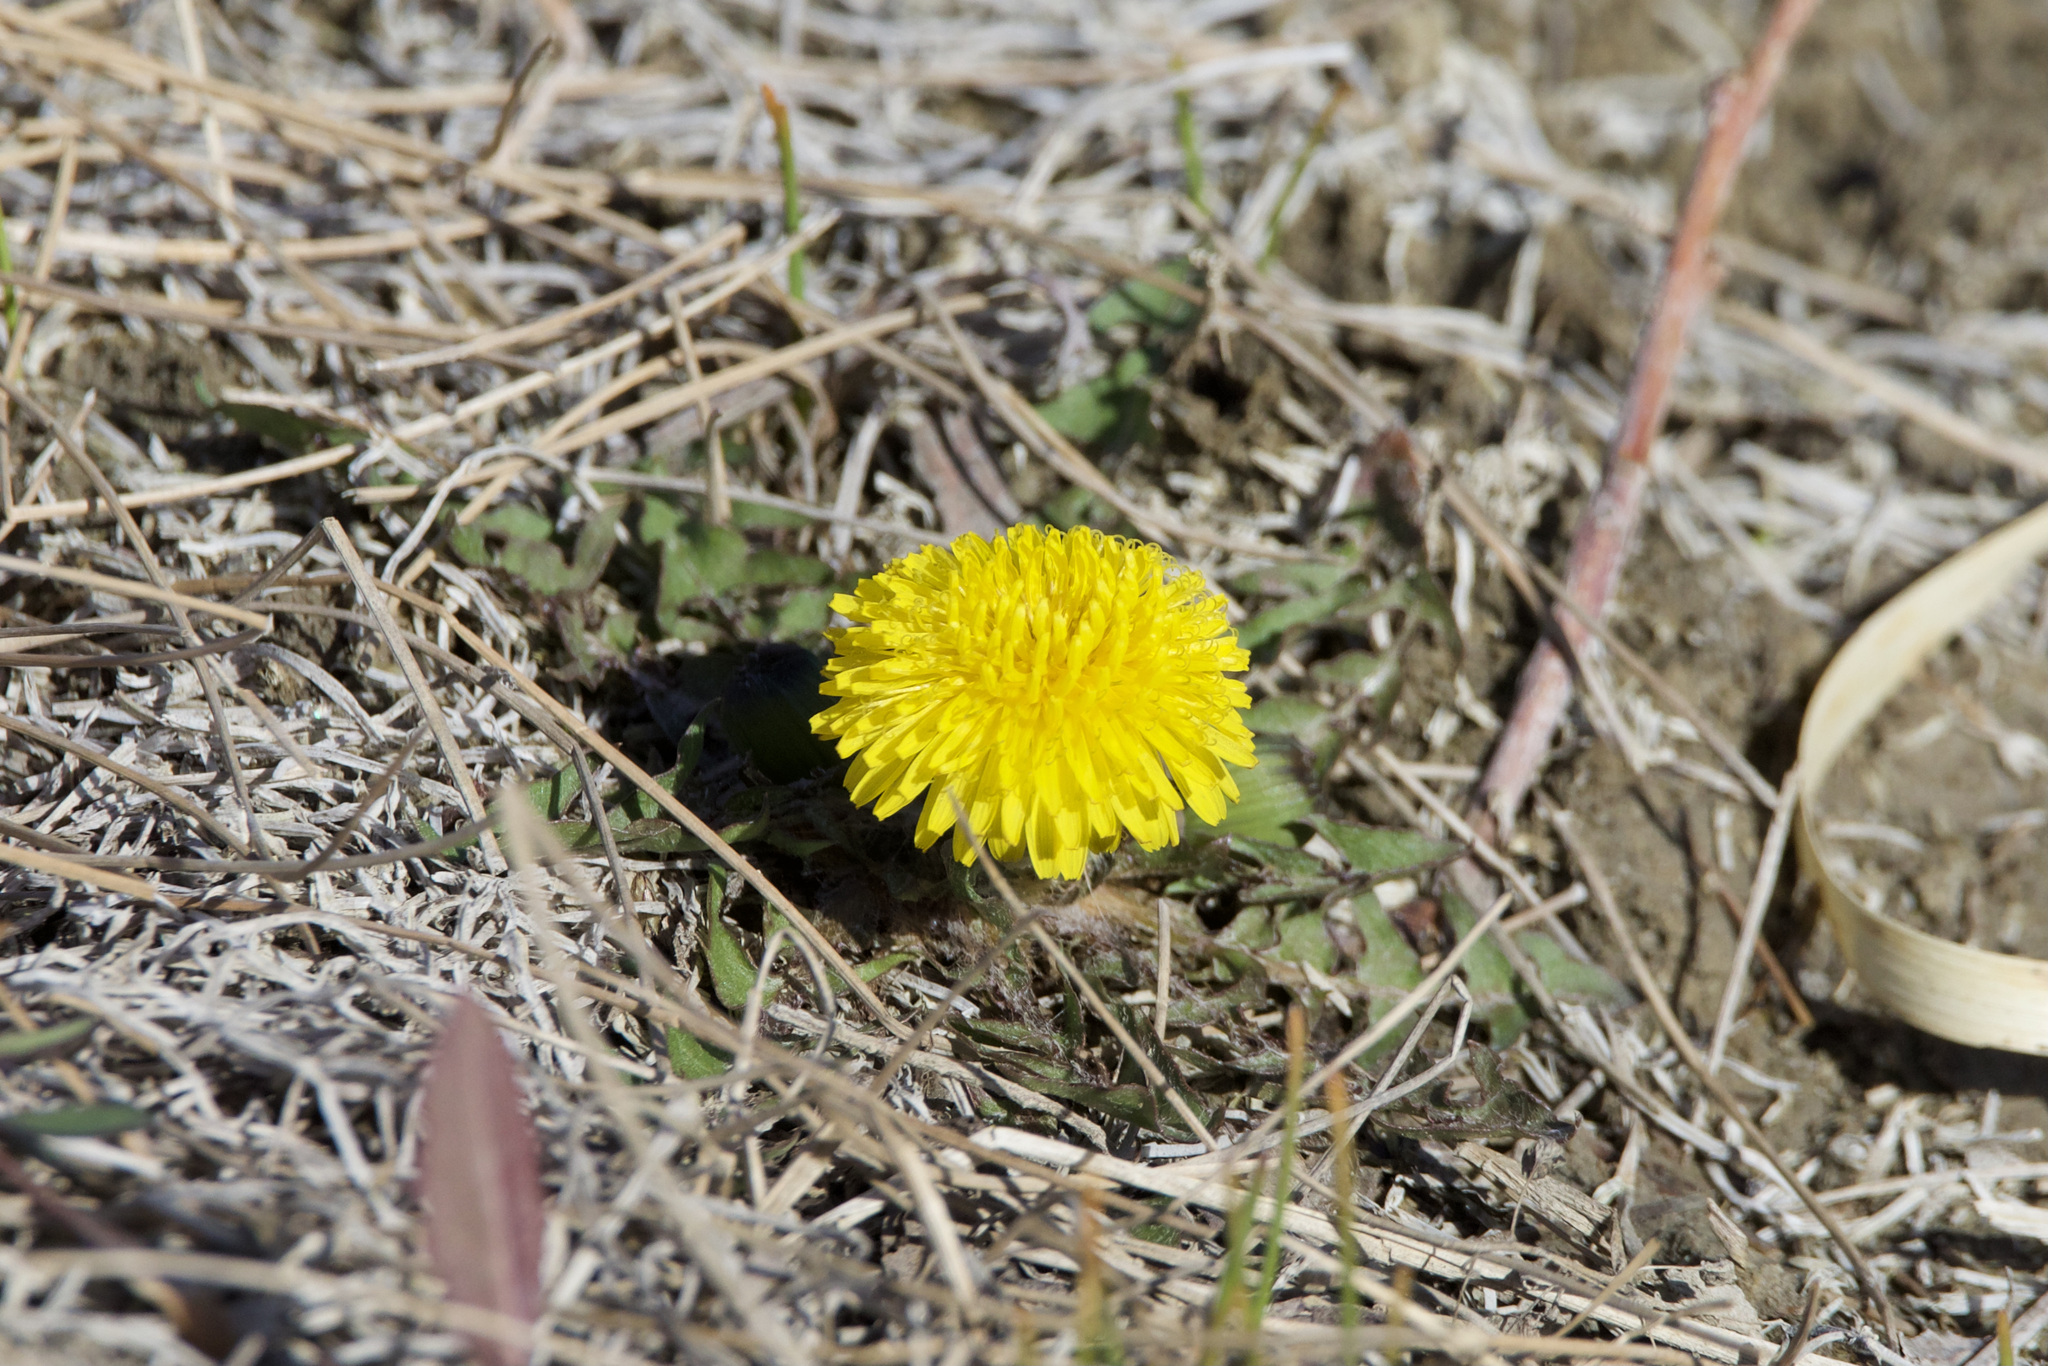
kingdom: Plantae
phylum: Tracheophyta
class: Magnoliopsida
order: Asterales
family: Asteraceae
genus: Taraxacum
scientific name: Taraxacum officinale
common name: Common dandelion
